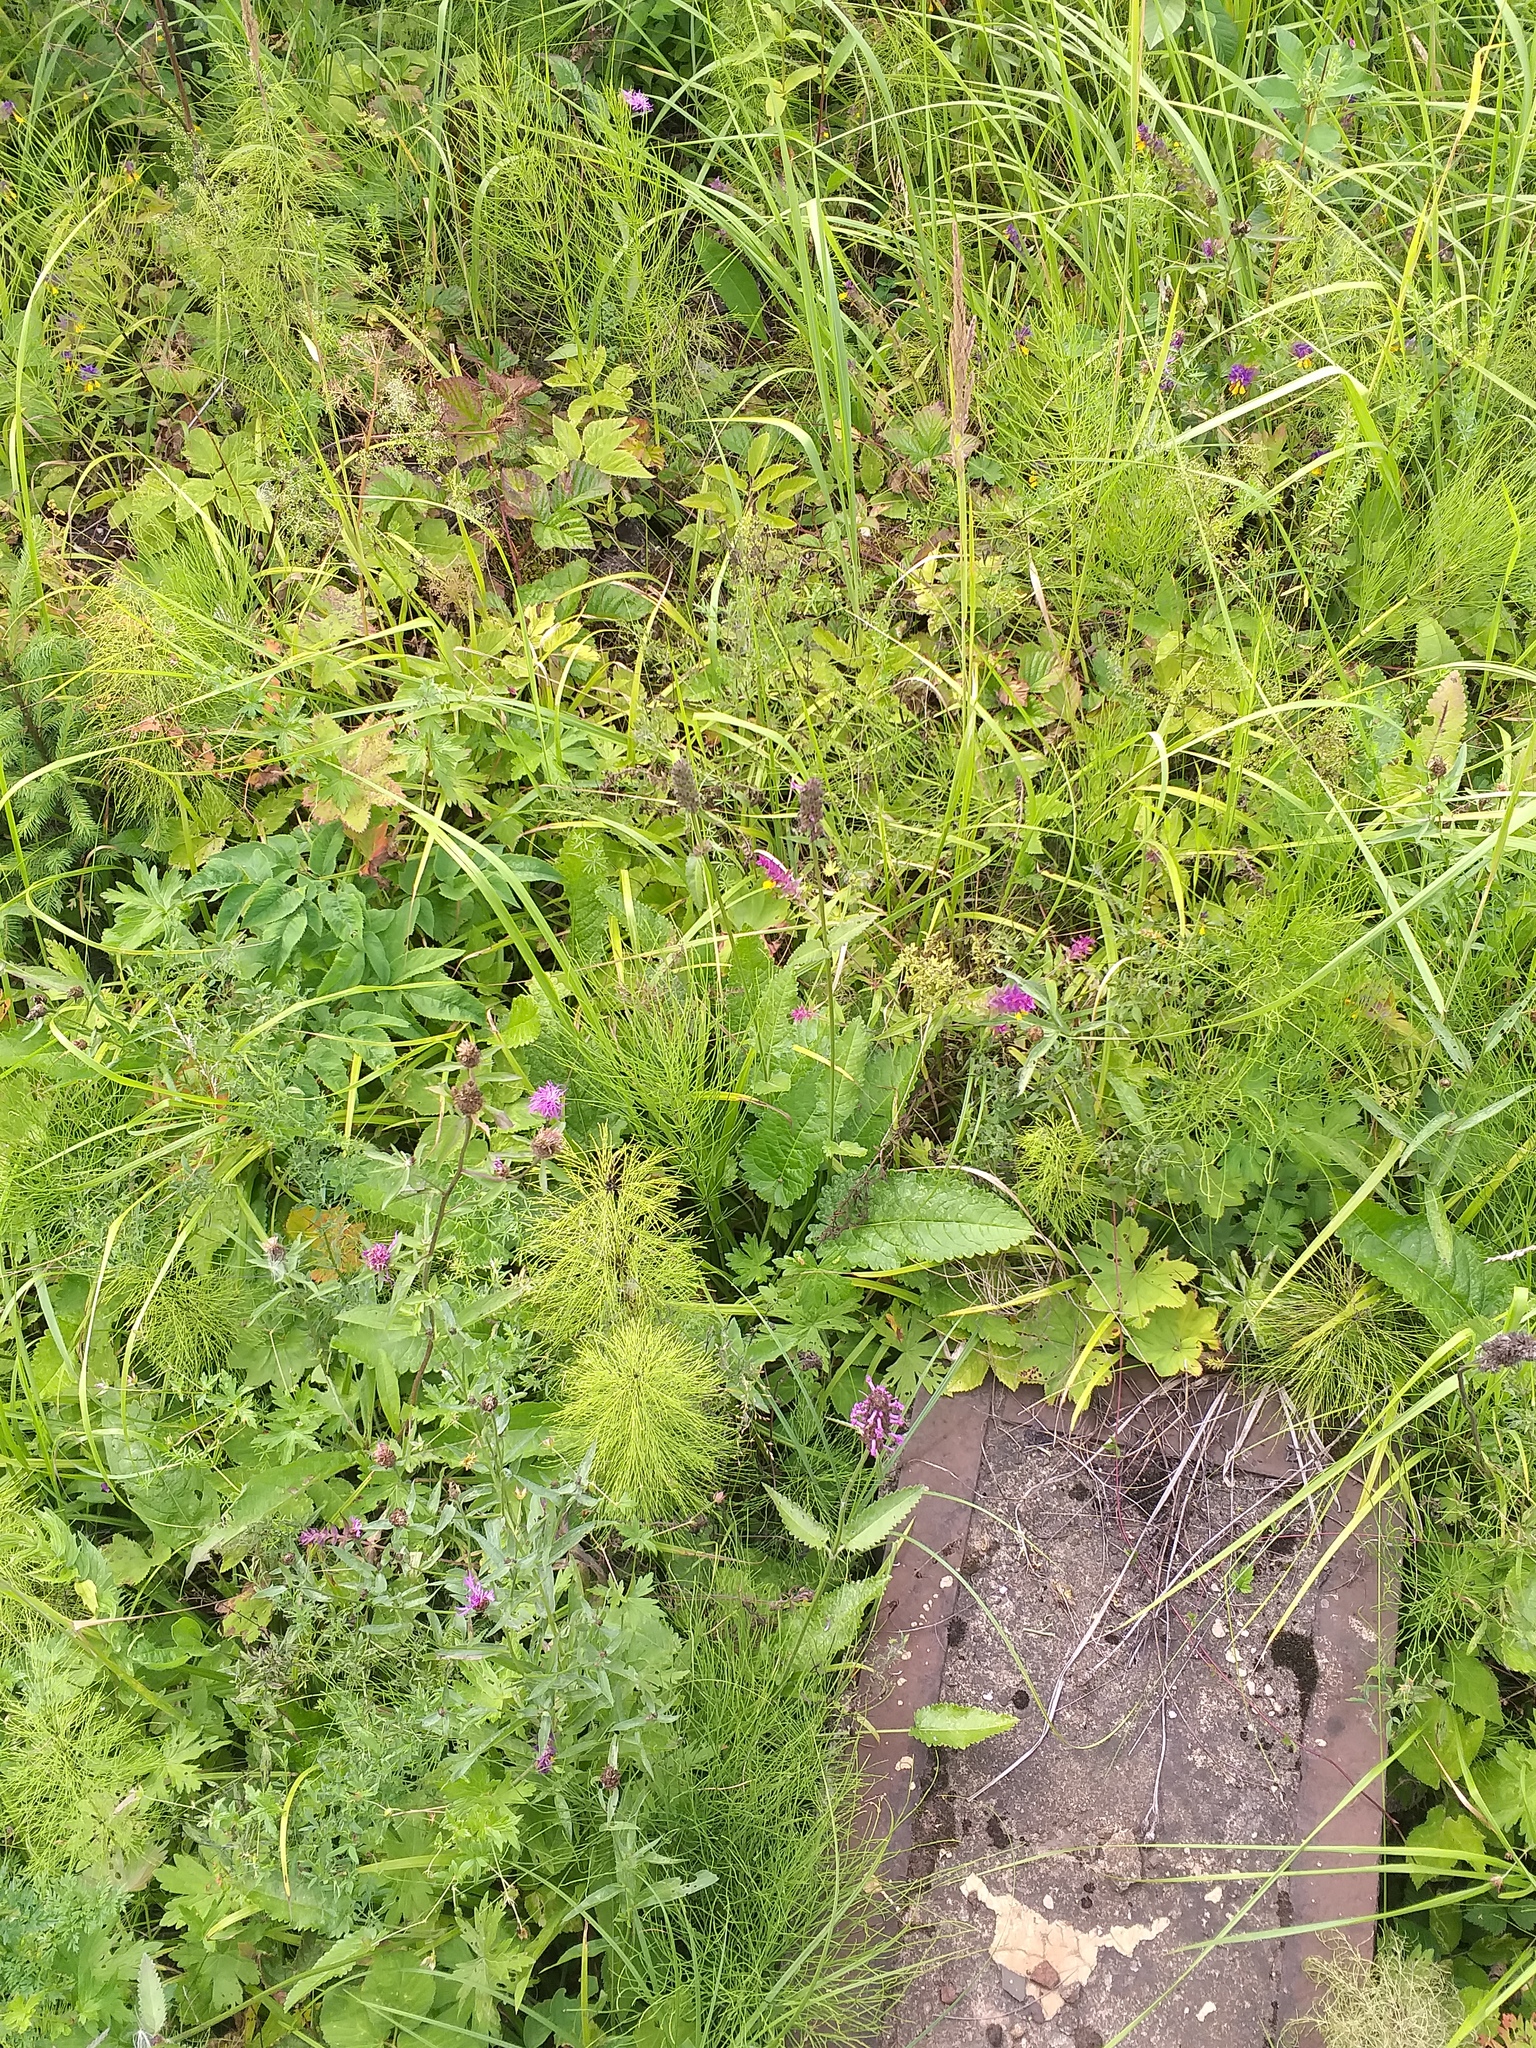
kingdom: Plantae
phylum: Tracheophyta
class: Magnoliopsida
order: Lamiales
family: Lamiaceae
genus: Betonica
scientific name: Betonica officinalis
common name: Bishop's-wort
